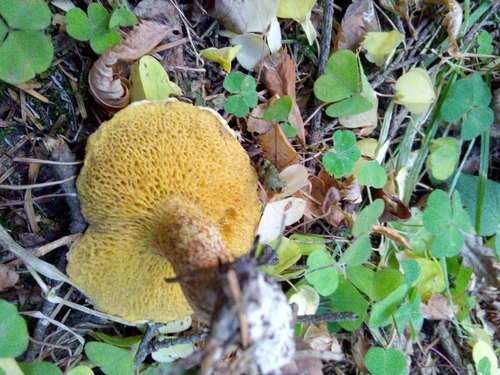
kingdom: Fungi
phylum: Basidiomycota
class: Agaricomycetes
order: Boletales
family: Suillaceae
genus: Suillus
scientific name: Suillus americanus
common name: Chicken fat mushroom
